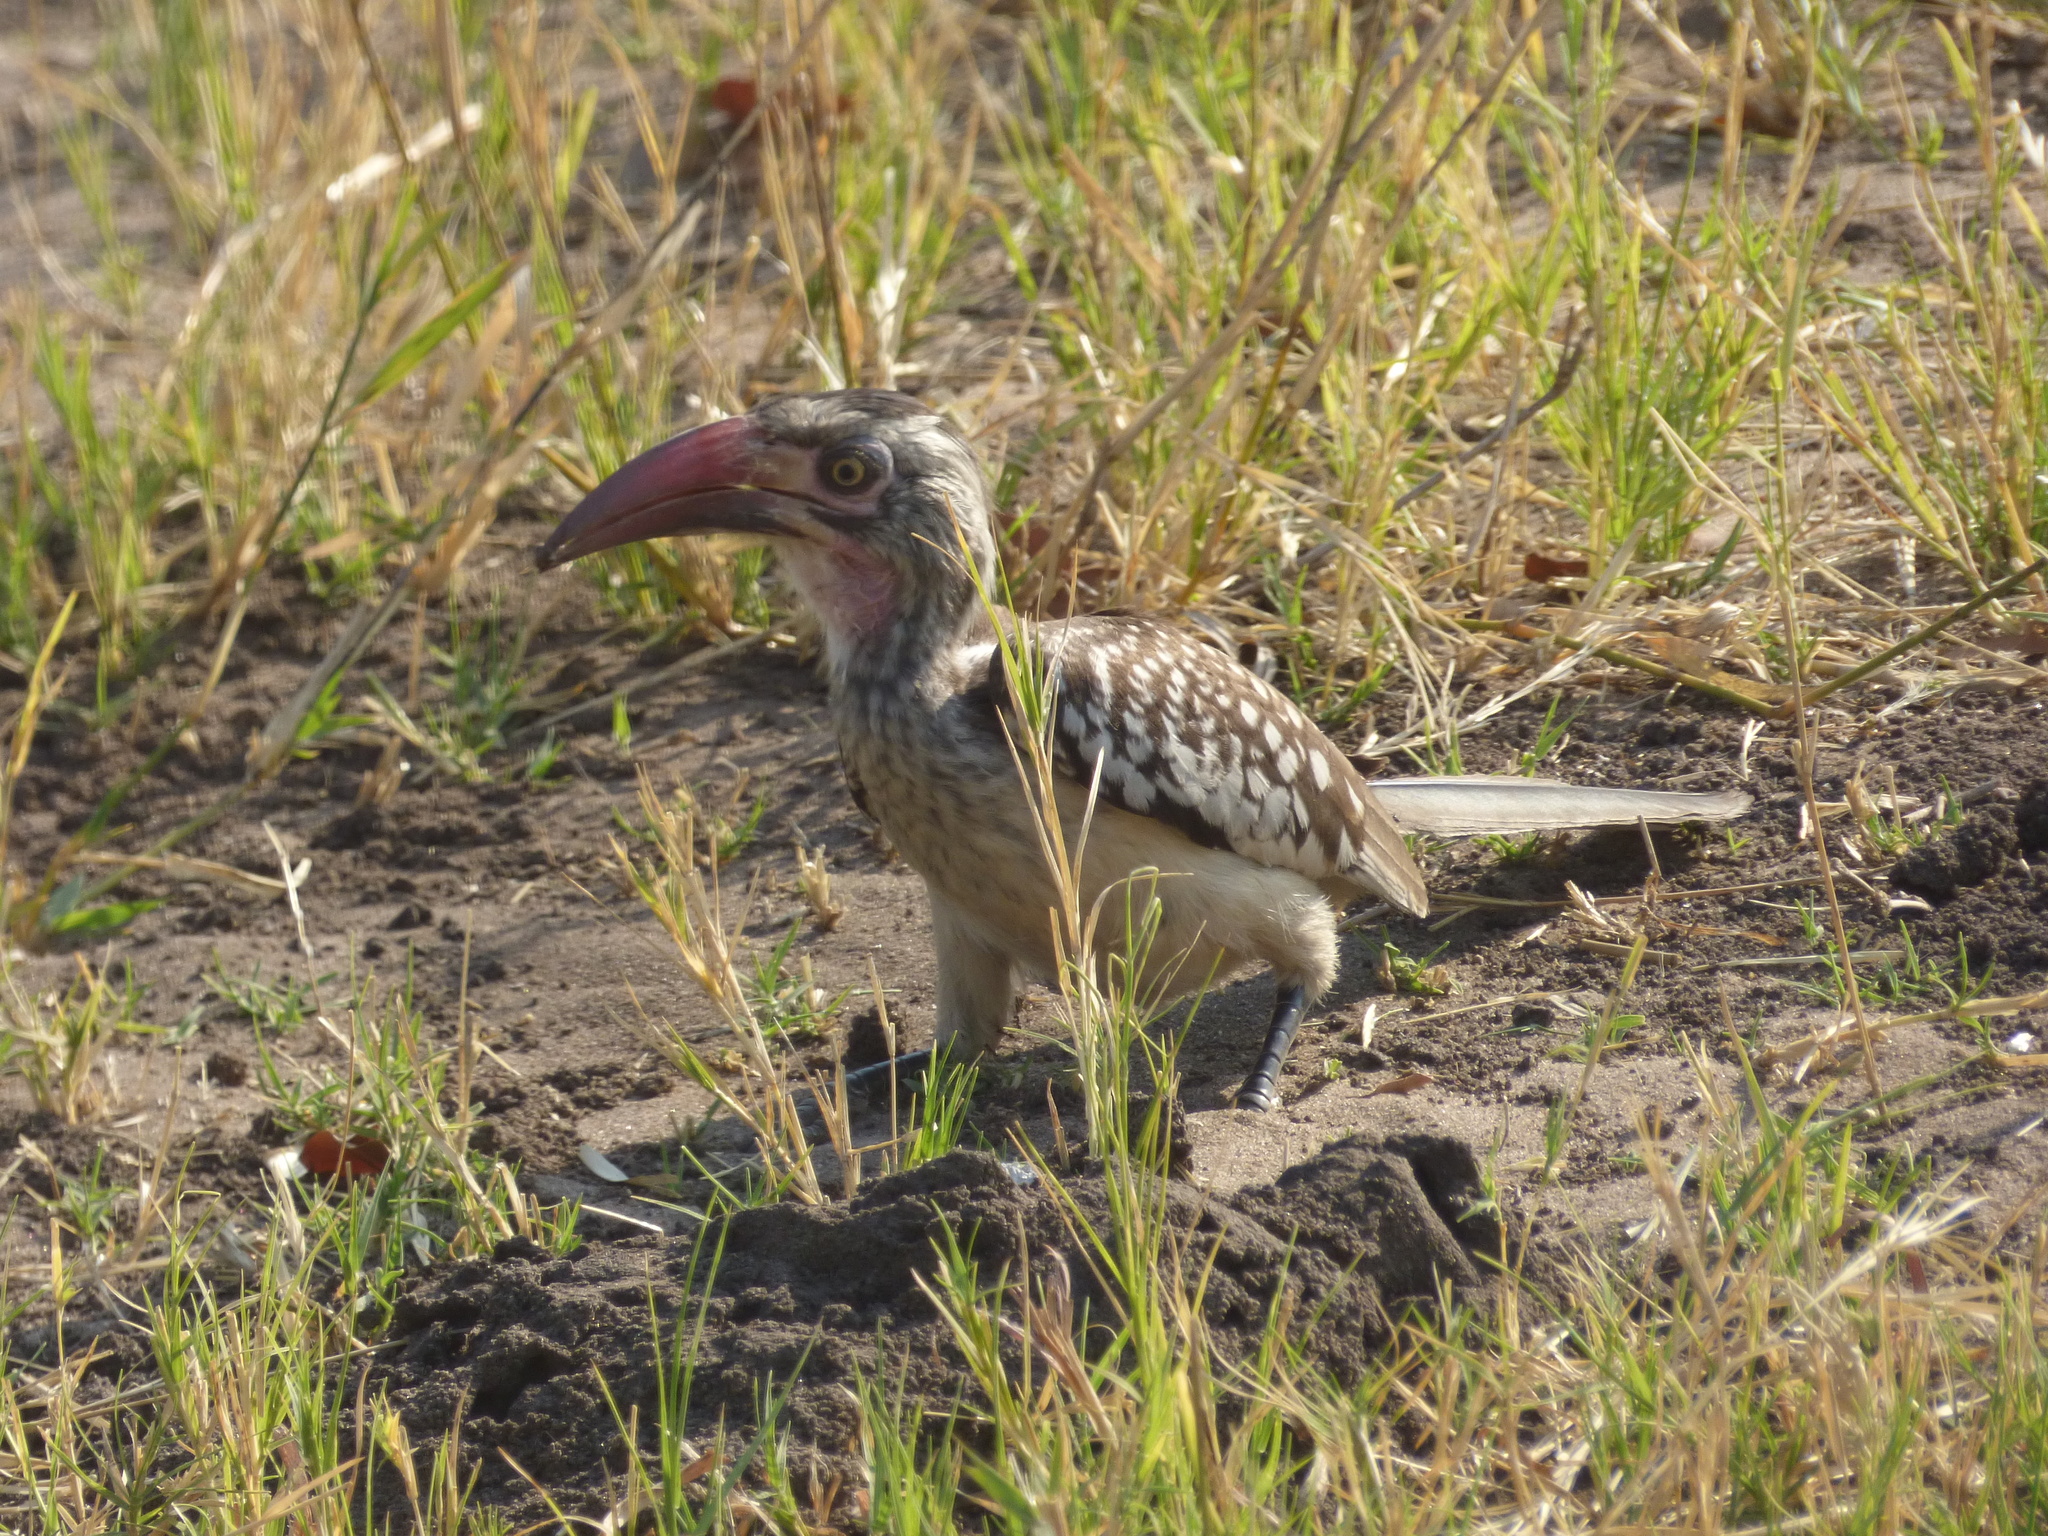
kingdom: Animalia
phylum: Chordata
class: Aves
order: Bucerotiformes
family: Bucerotidae
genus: Tockus
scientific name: Tockus rufirostris
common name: Southern red-billed hornbill
